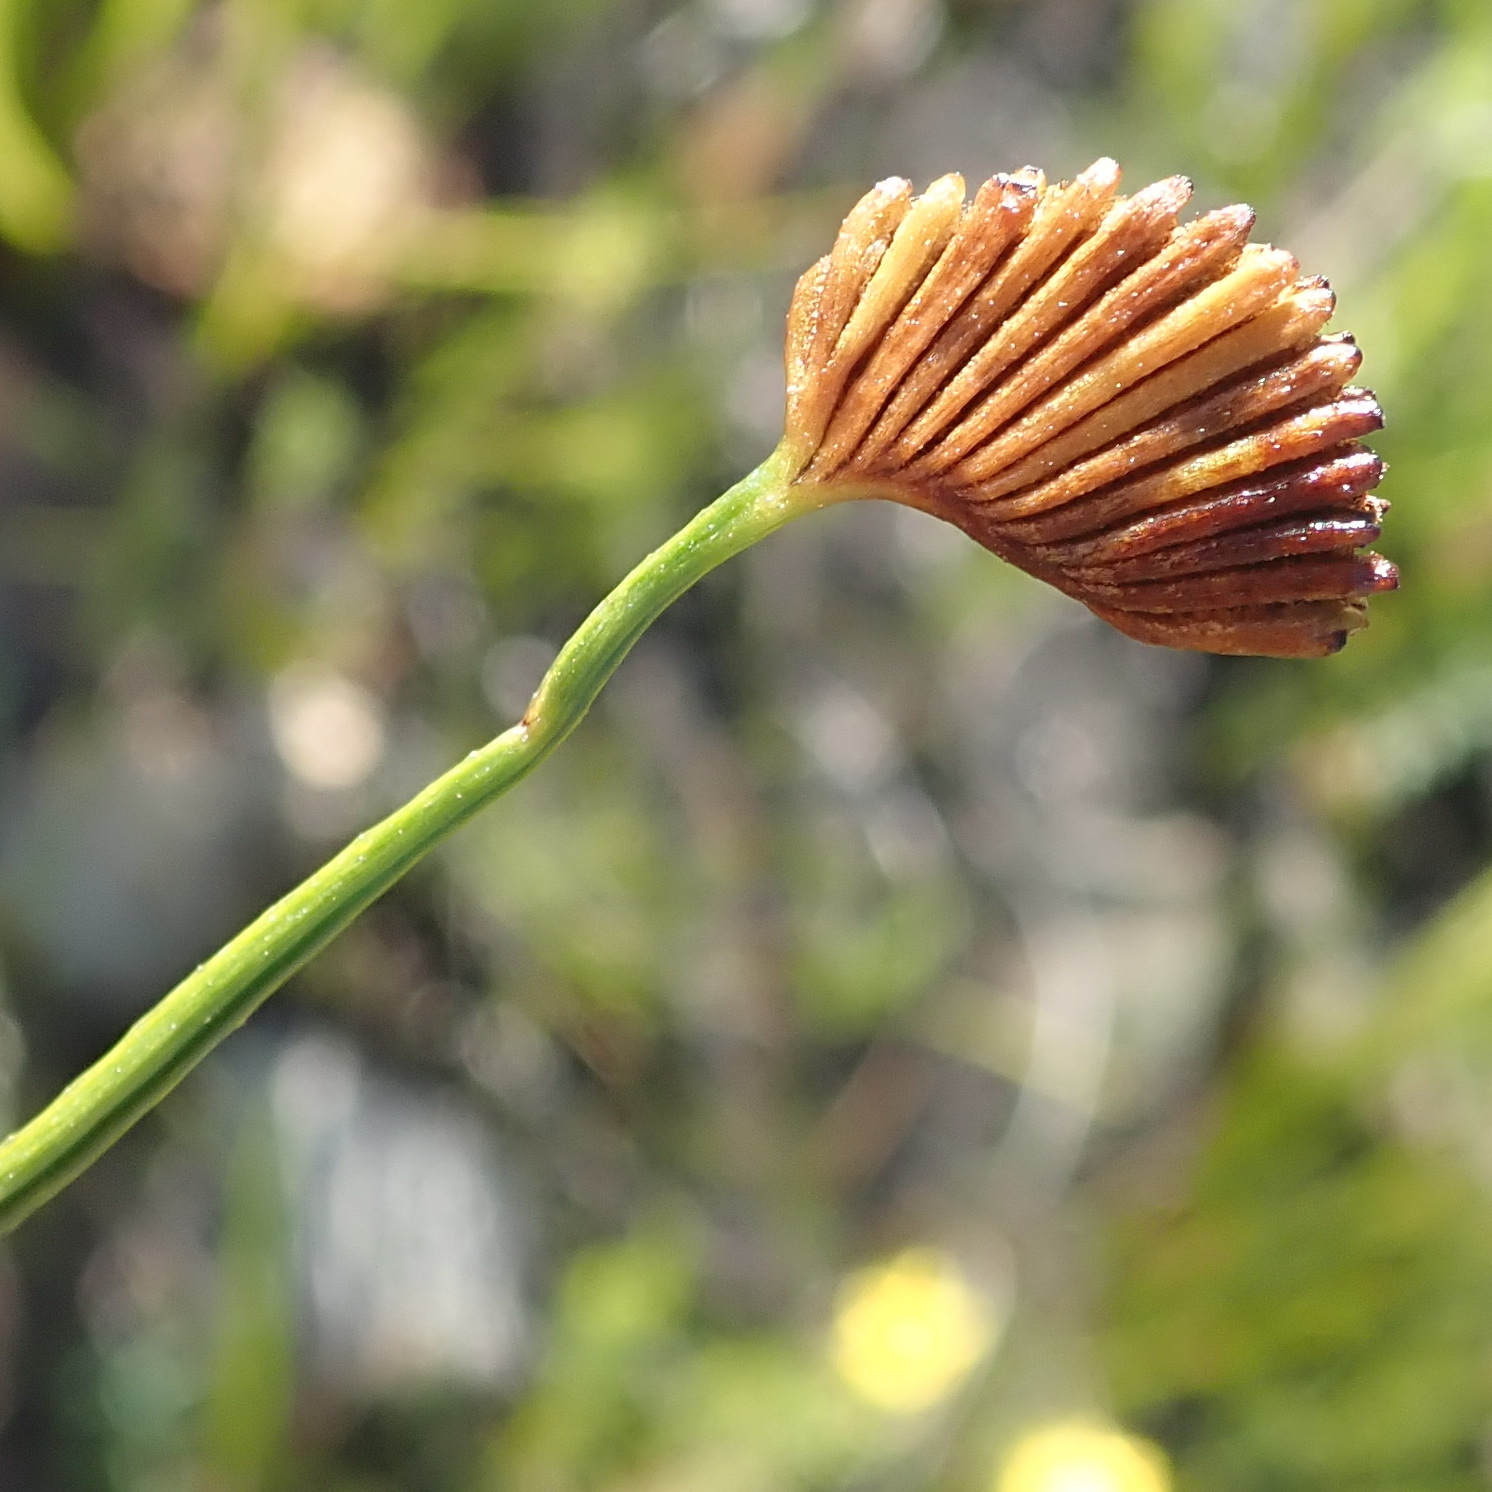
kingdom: Plantae
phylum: Tracheophyta
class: Polypodiopsida
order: Schizaeales
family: Schizaeaceae
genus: Schizaea
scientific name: Schizaea pectinata
